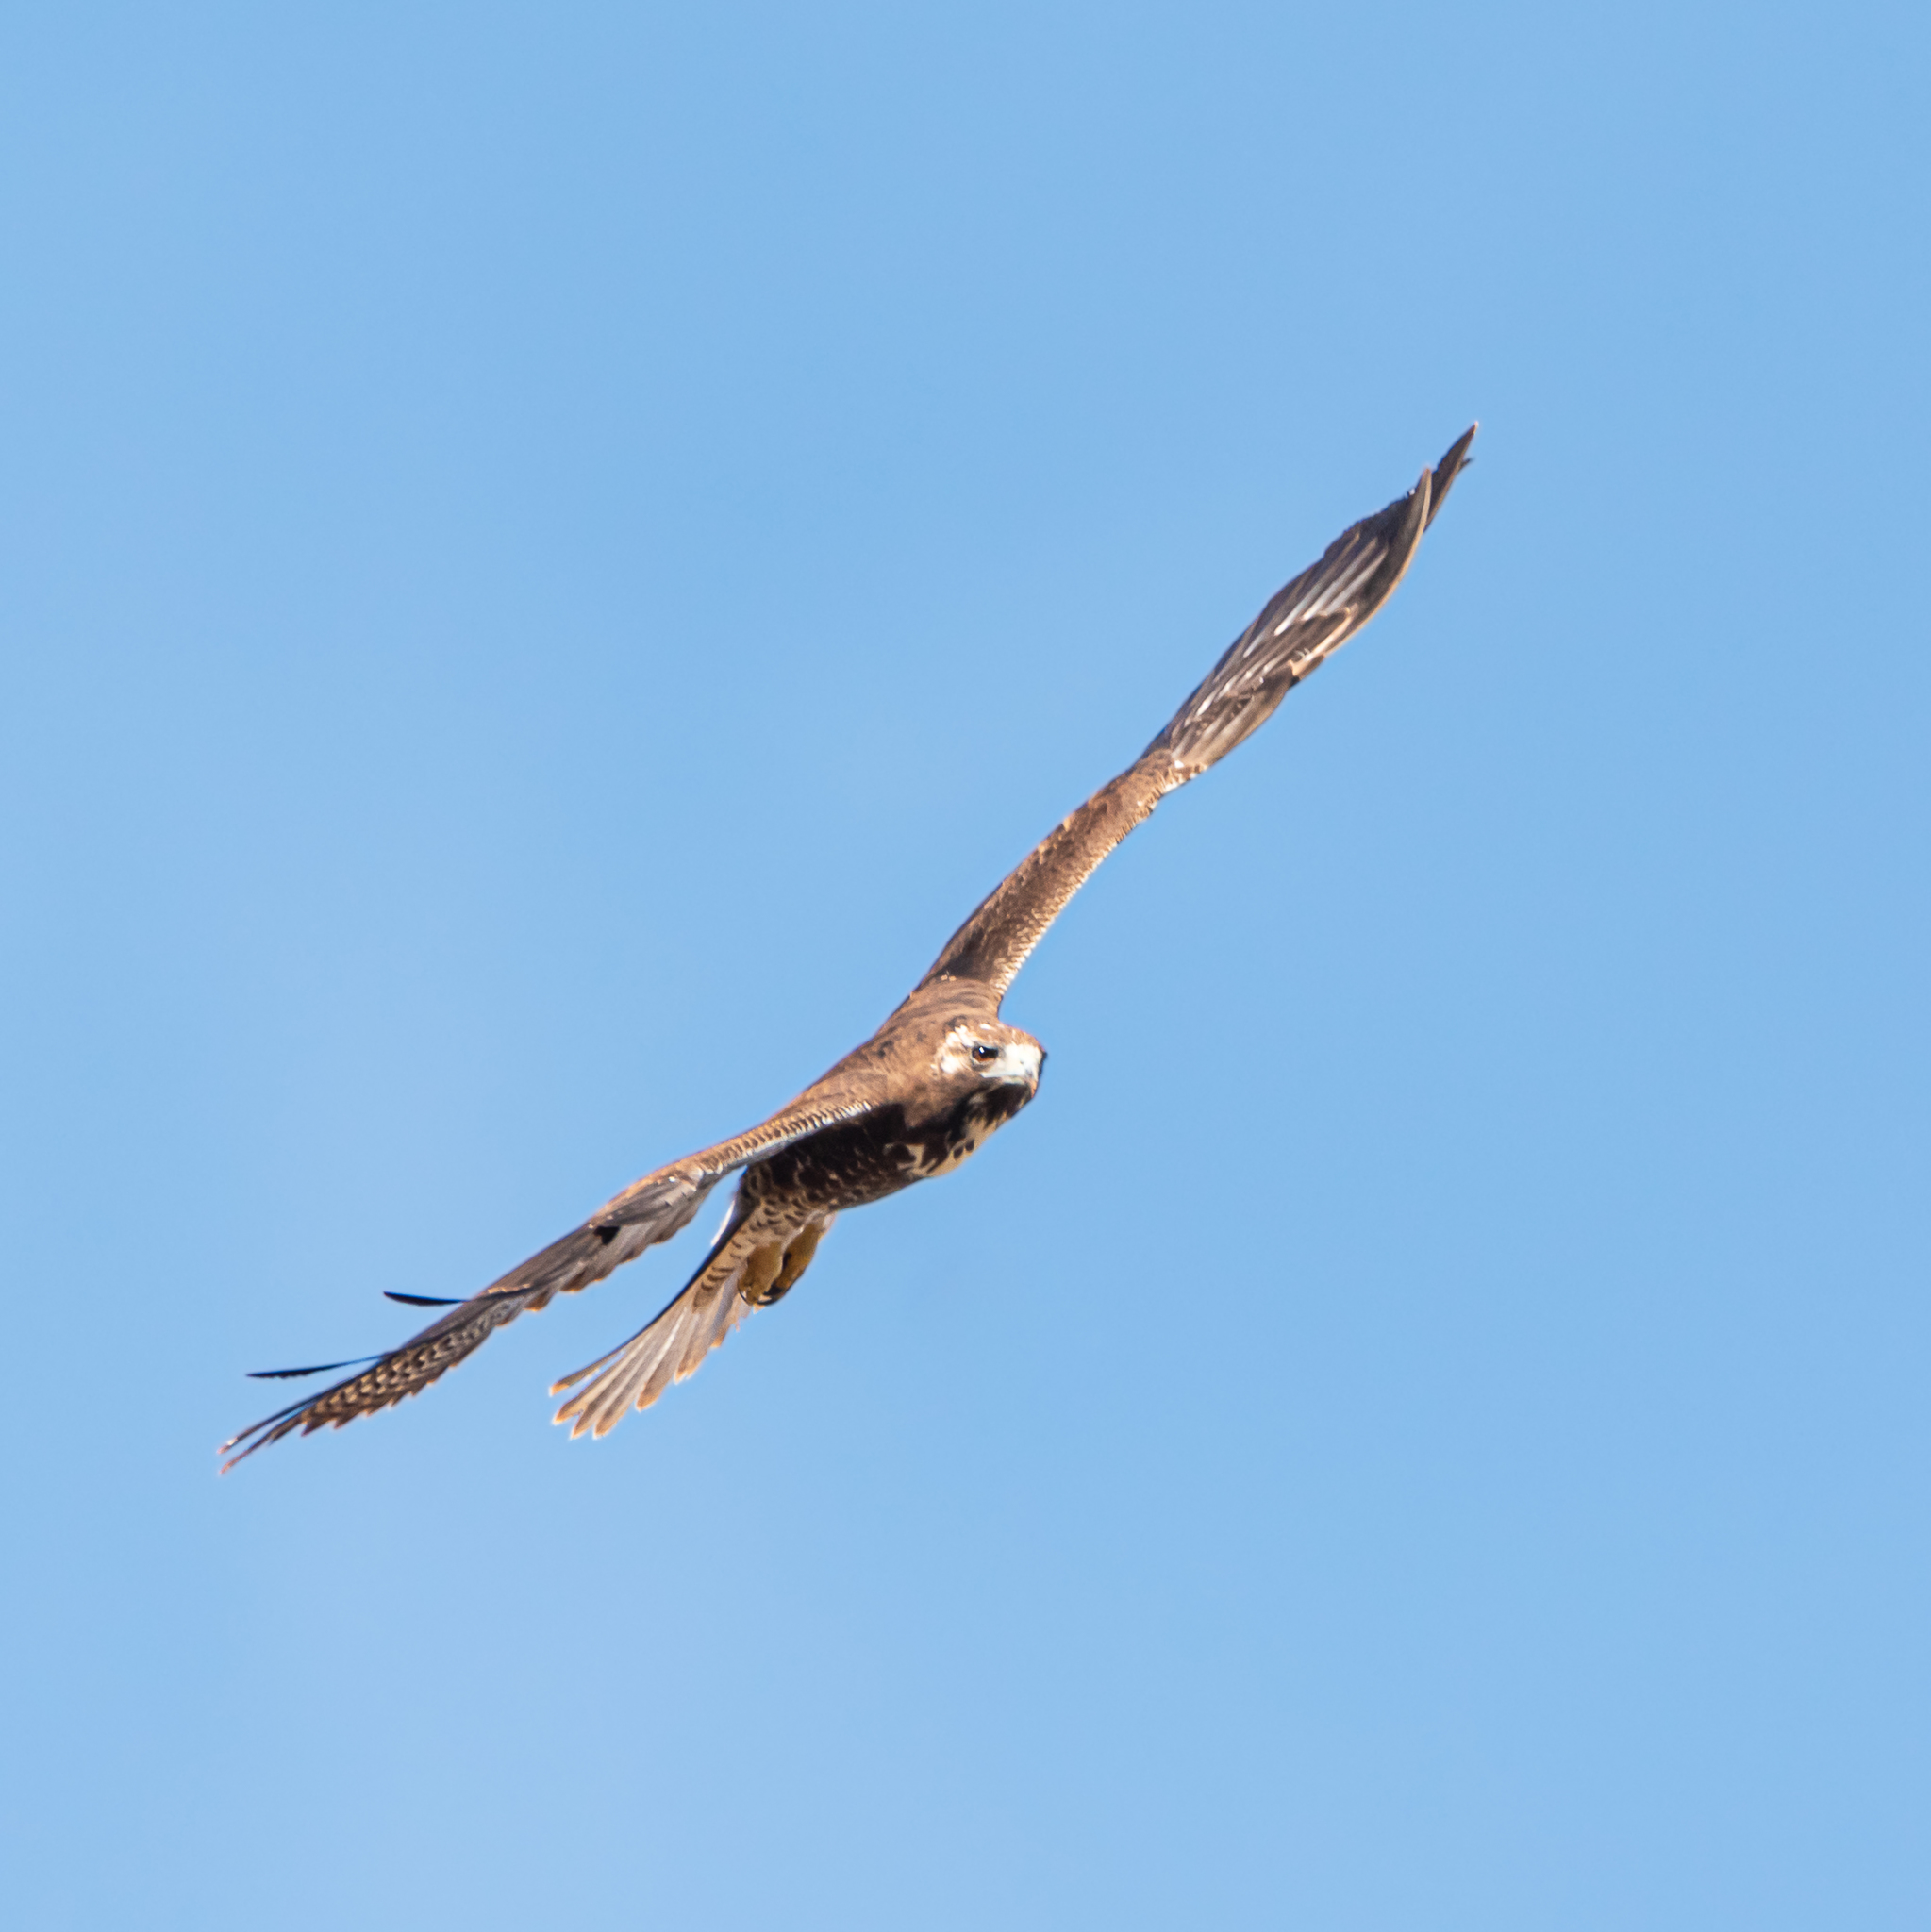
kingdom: Animalia
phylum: Chordata
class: Aves
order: Accipitriformes
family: Accipitridae
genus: Buteo
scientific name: Buteo albicaudatus
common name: White-tailed hawk
